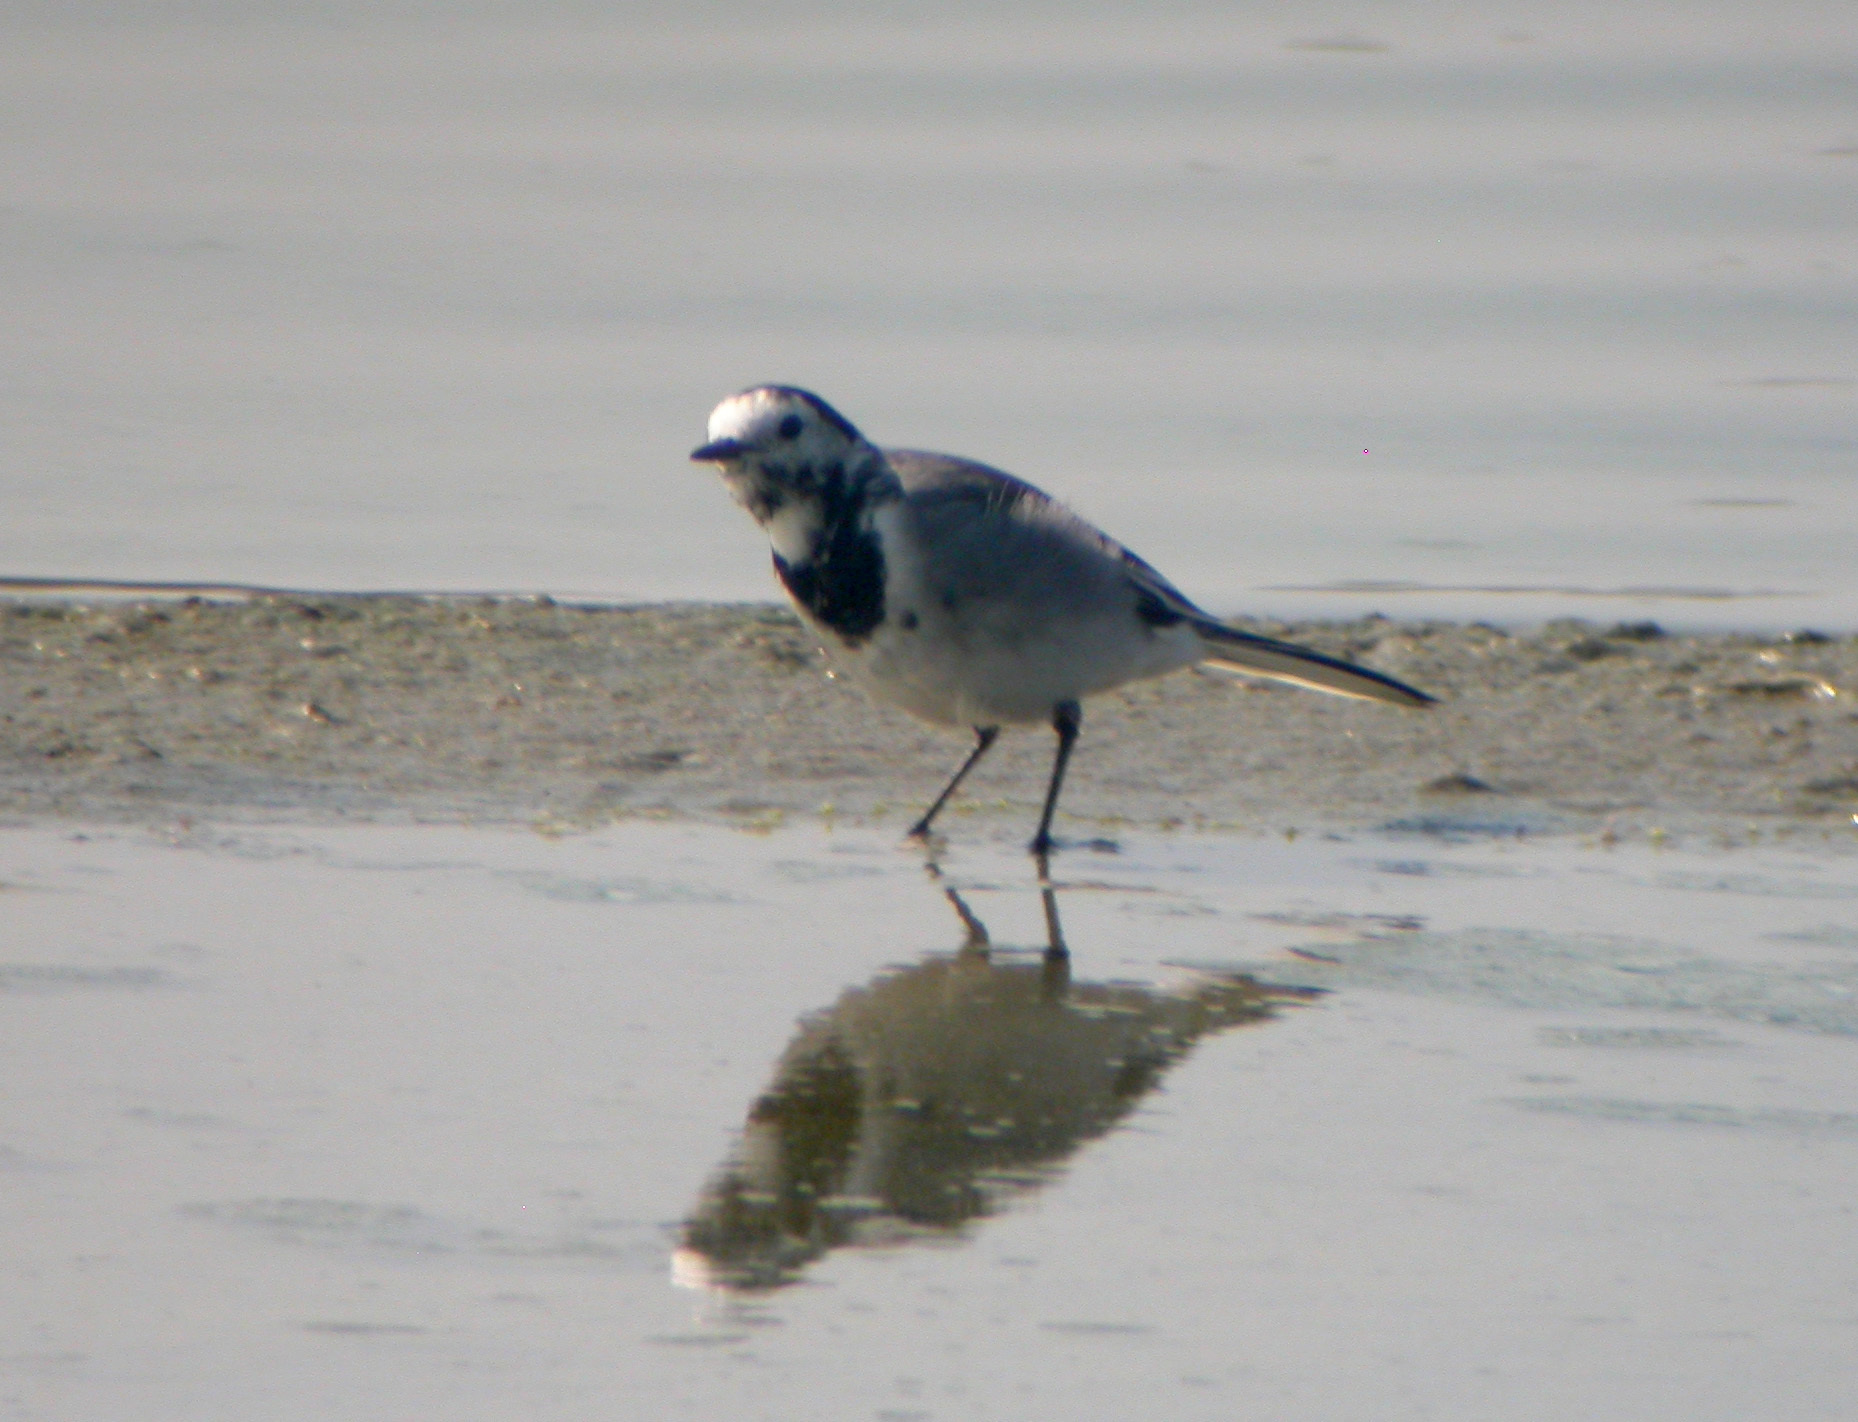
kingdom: Animalia
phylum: Chordata
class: Aves
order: Passeriformes
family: Motacillidae
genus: Motacilla
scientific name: Motacilla alba
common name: White wagtail
